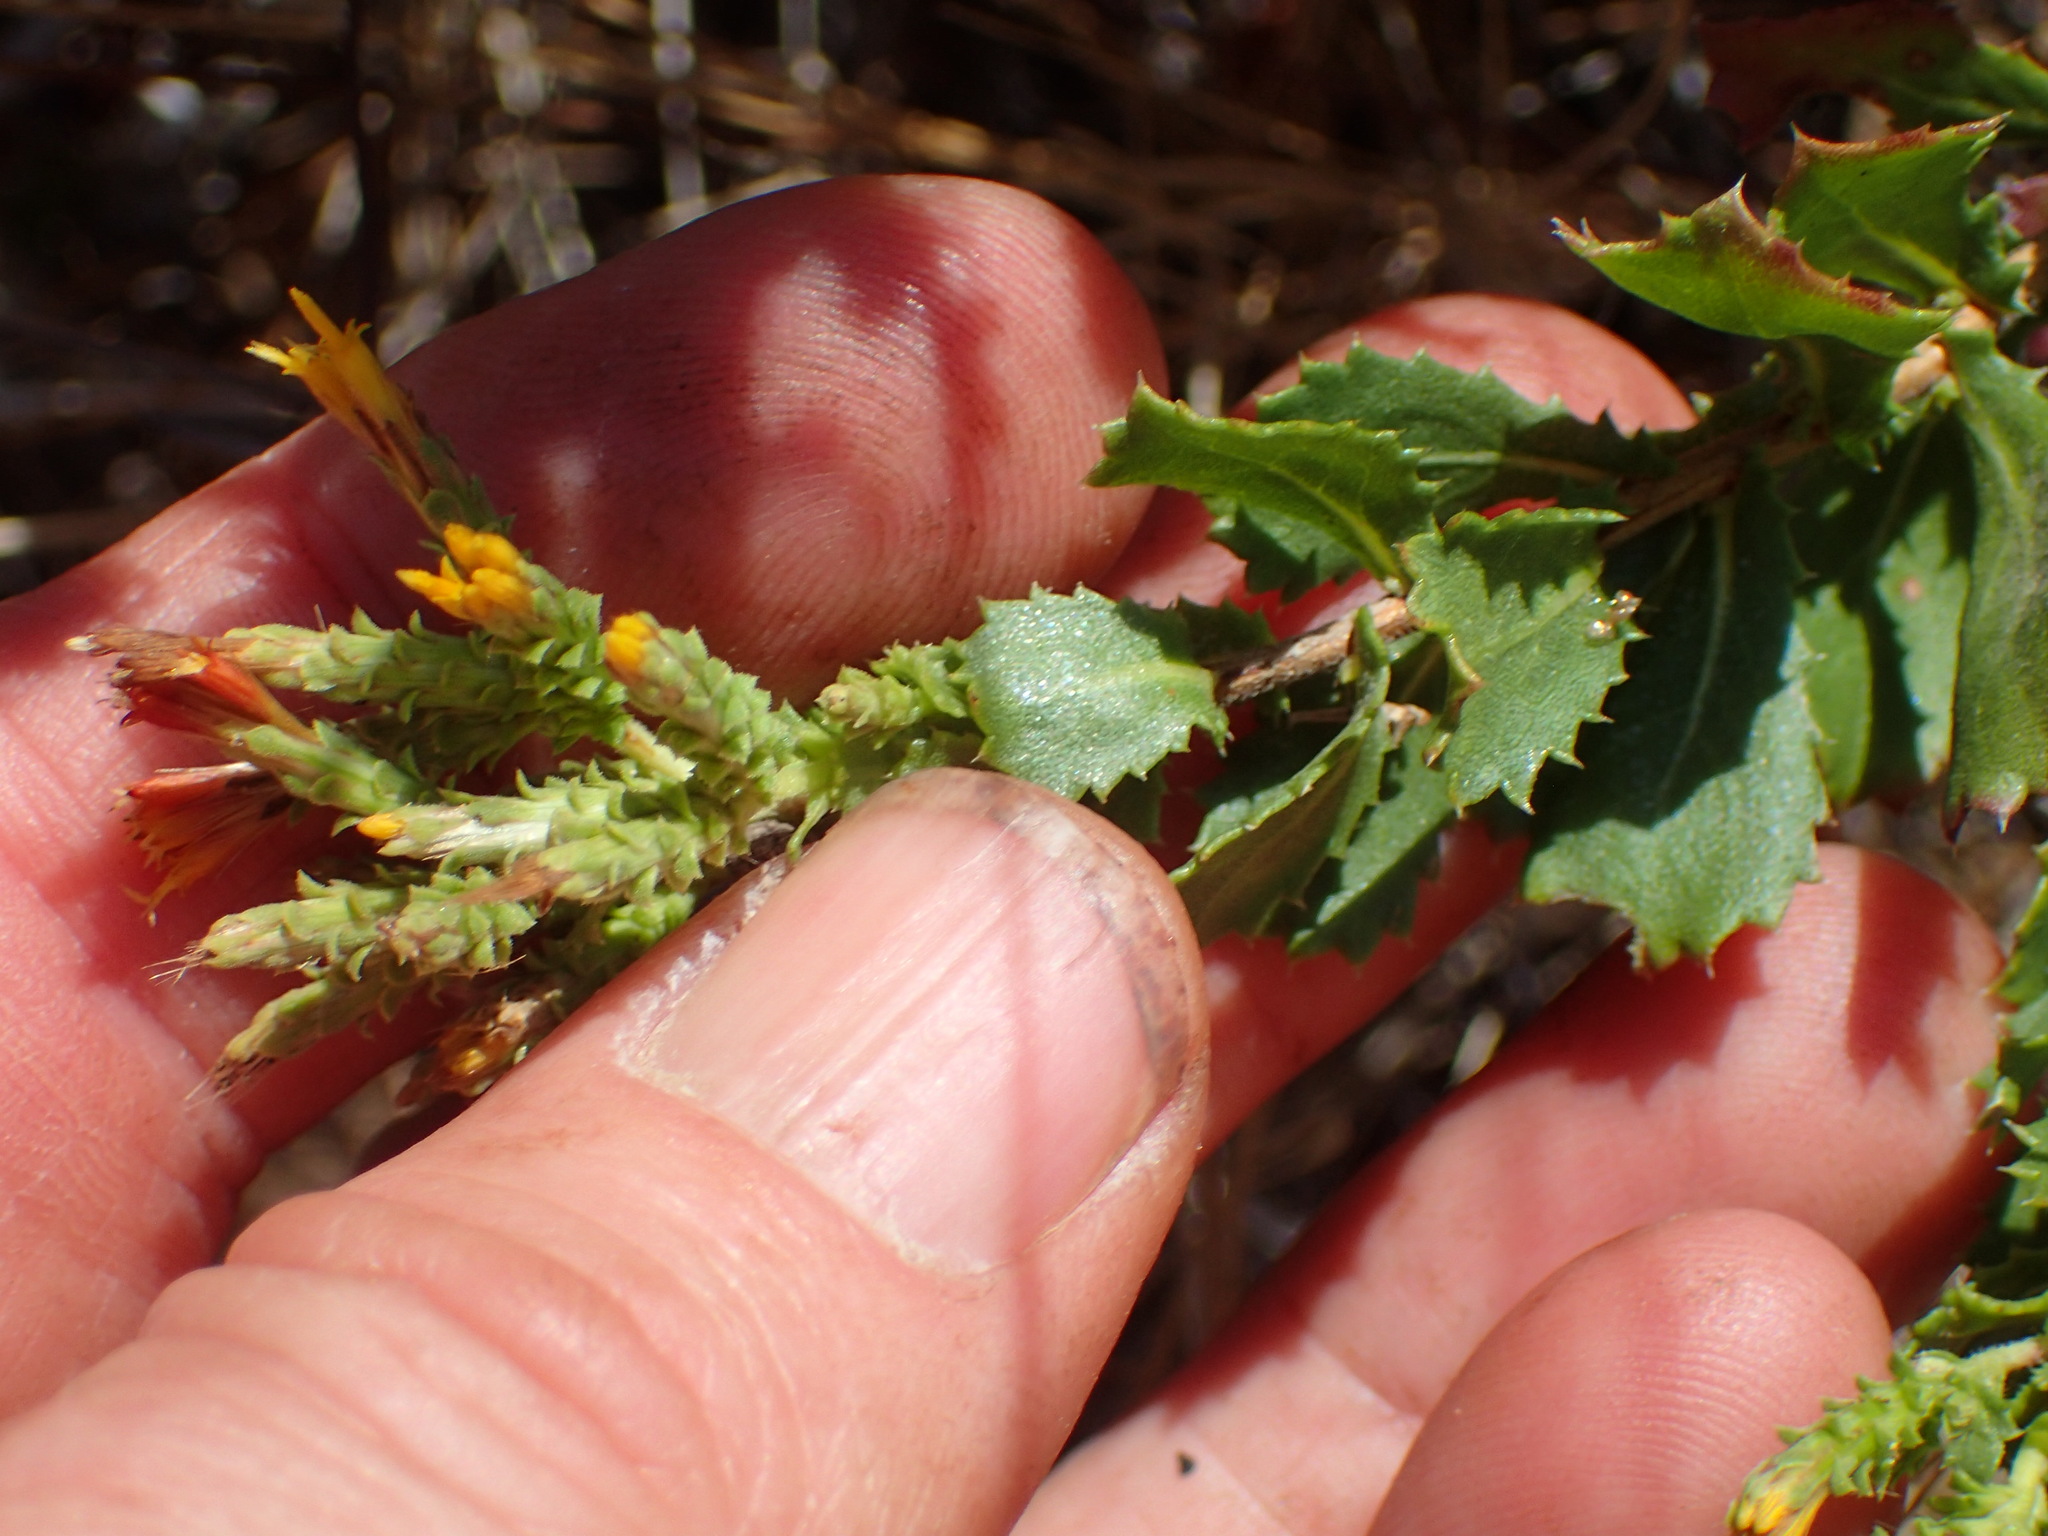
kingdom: Plantae
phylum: Tracheophyta
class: Magnoliopsida
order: Asterales
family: Asteraceae
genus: Hazardia
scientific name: Hazardia squarrosa
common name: Saw-tooth goldenbush
